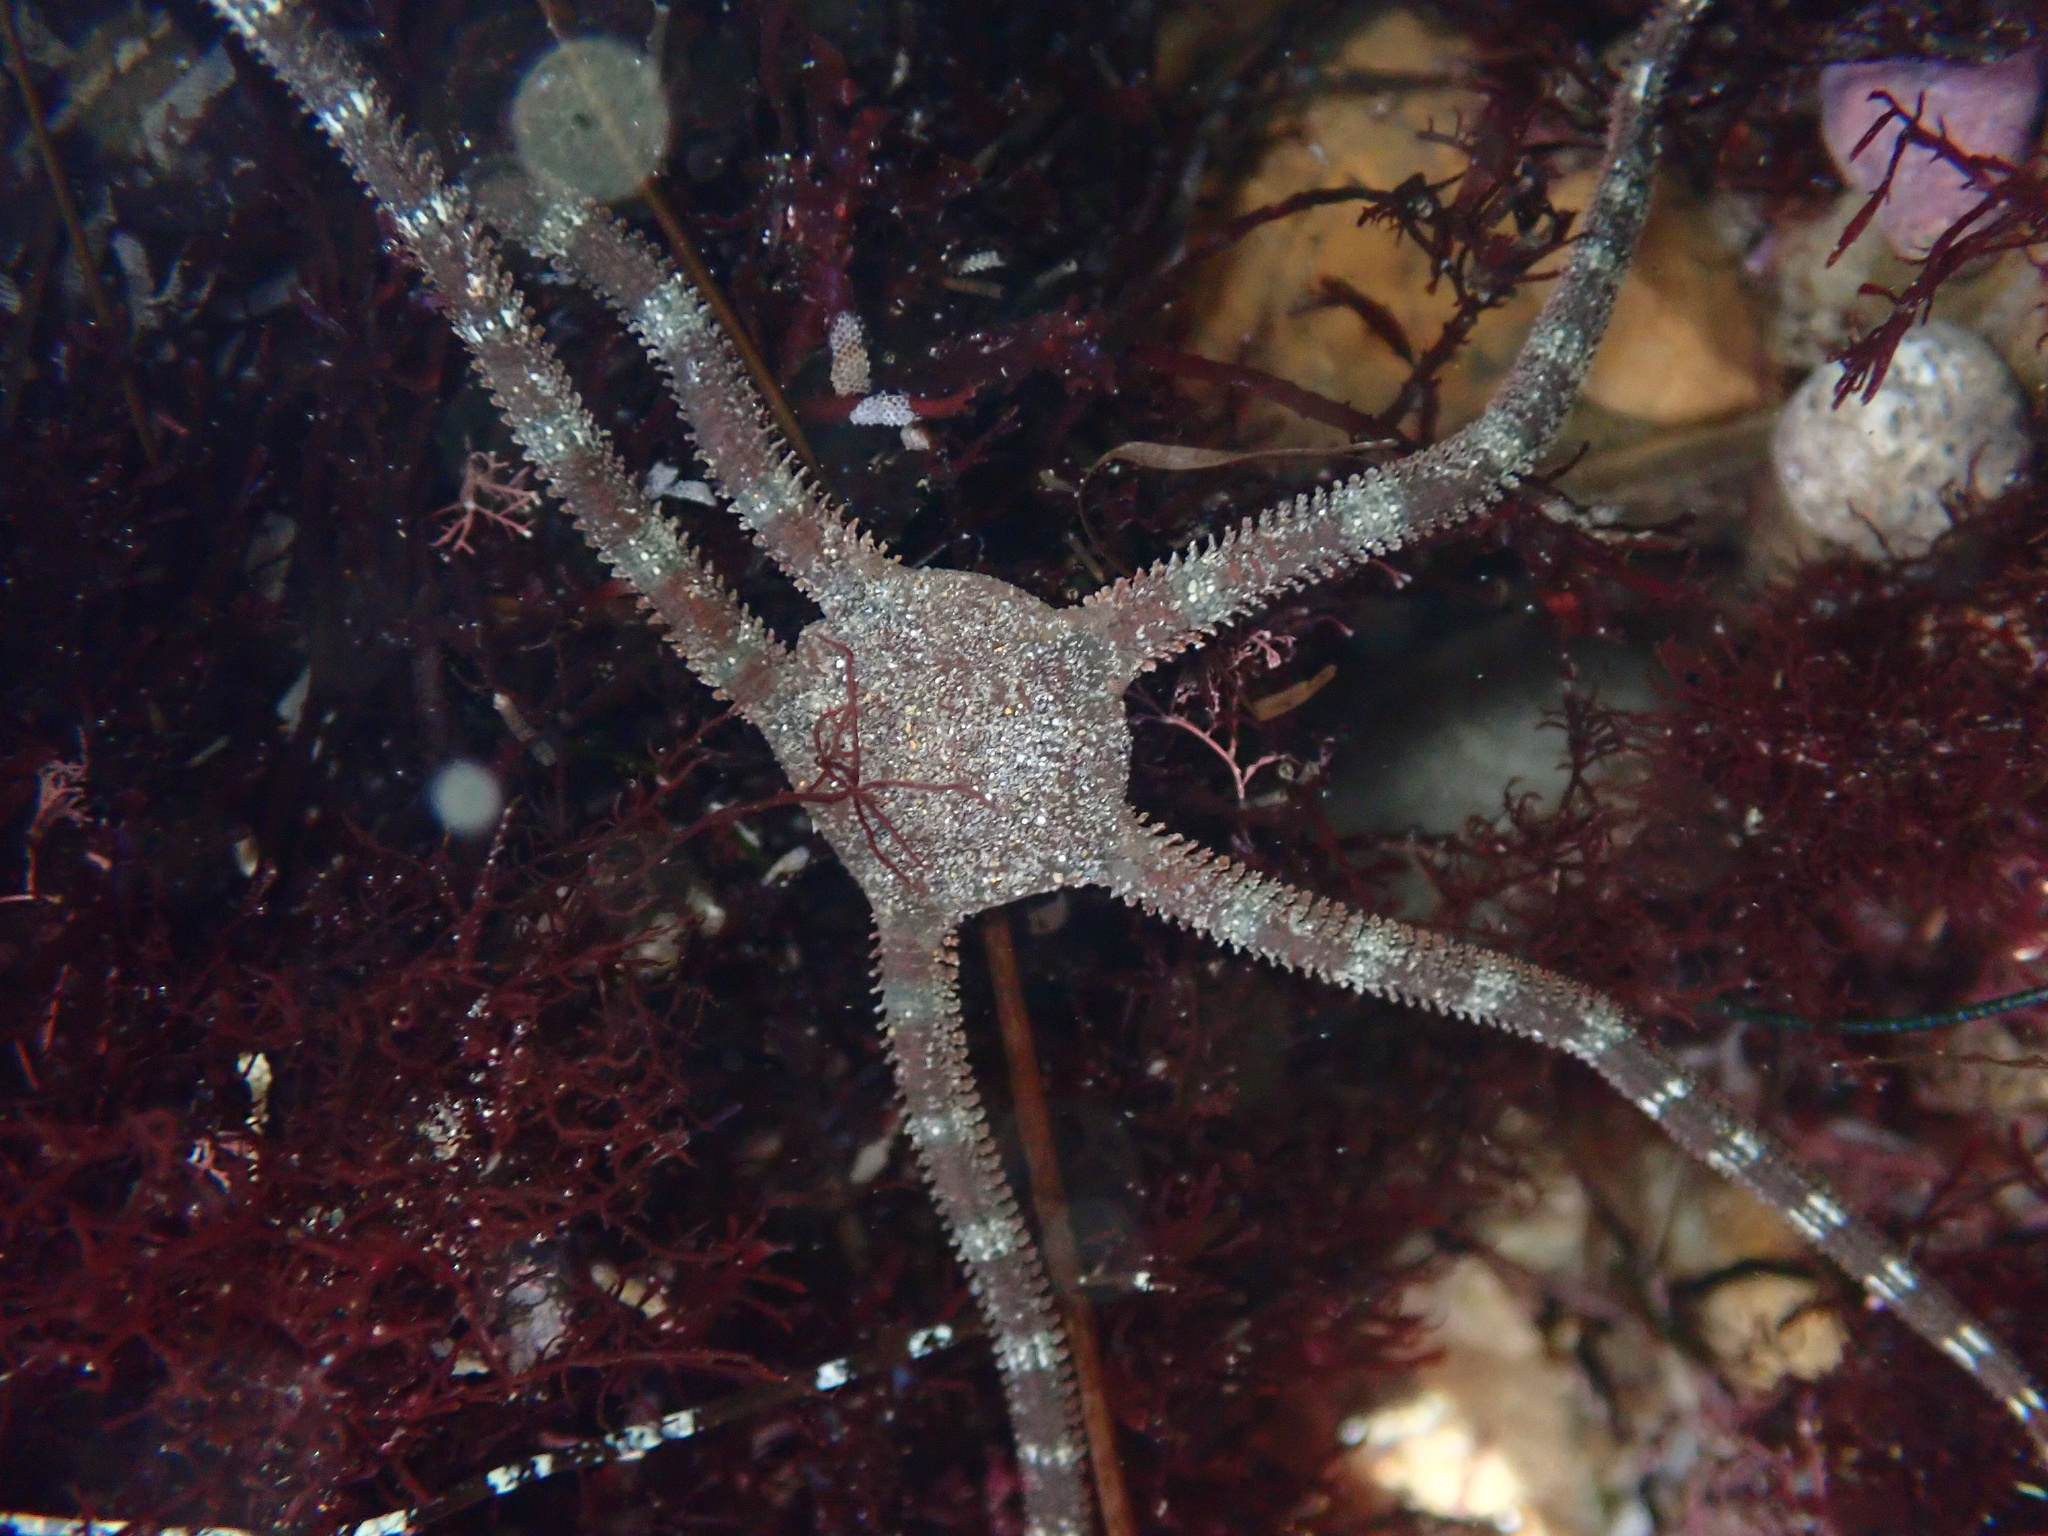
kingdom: Animalia
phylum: Echinodermata
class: Ophiuroidea
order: Ophiacanthida
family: Ophiodermatidae
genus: Ophioderma
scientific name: Ophioderma panamense
